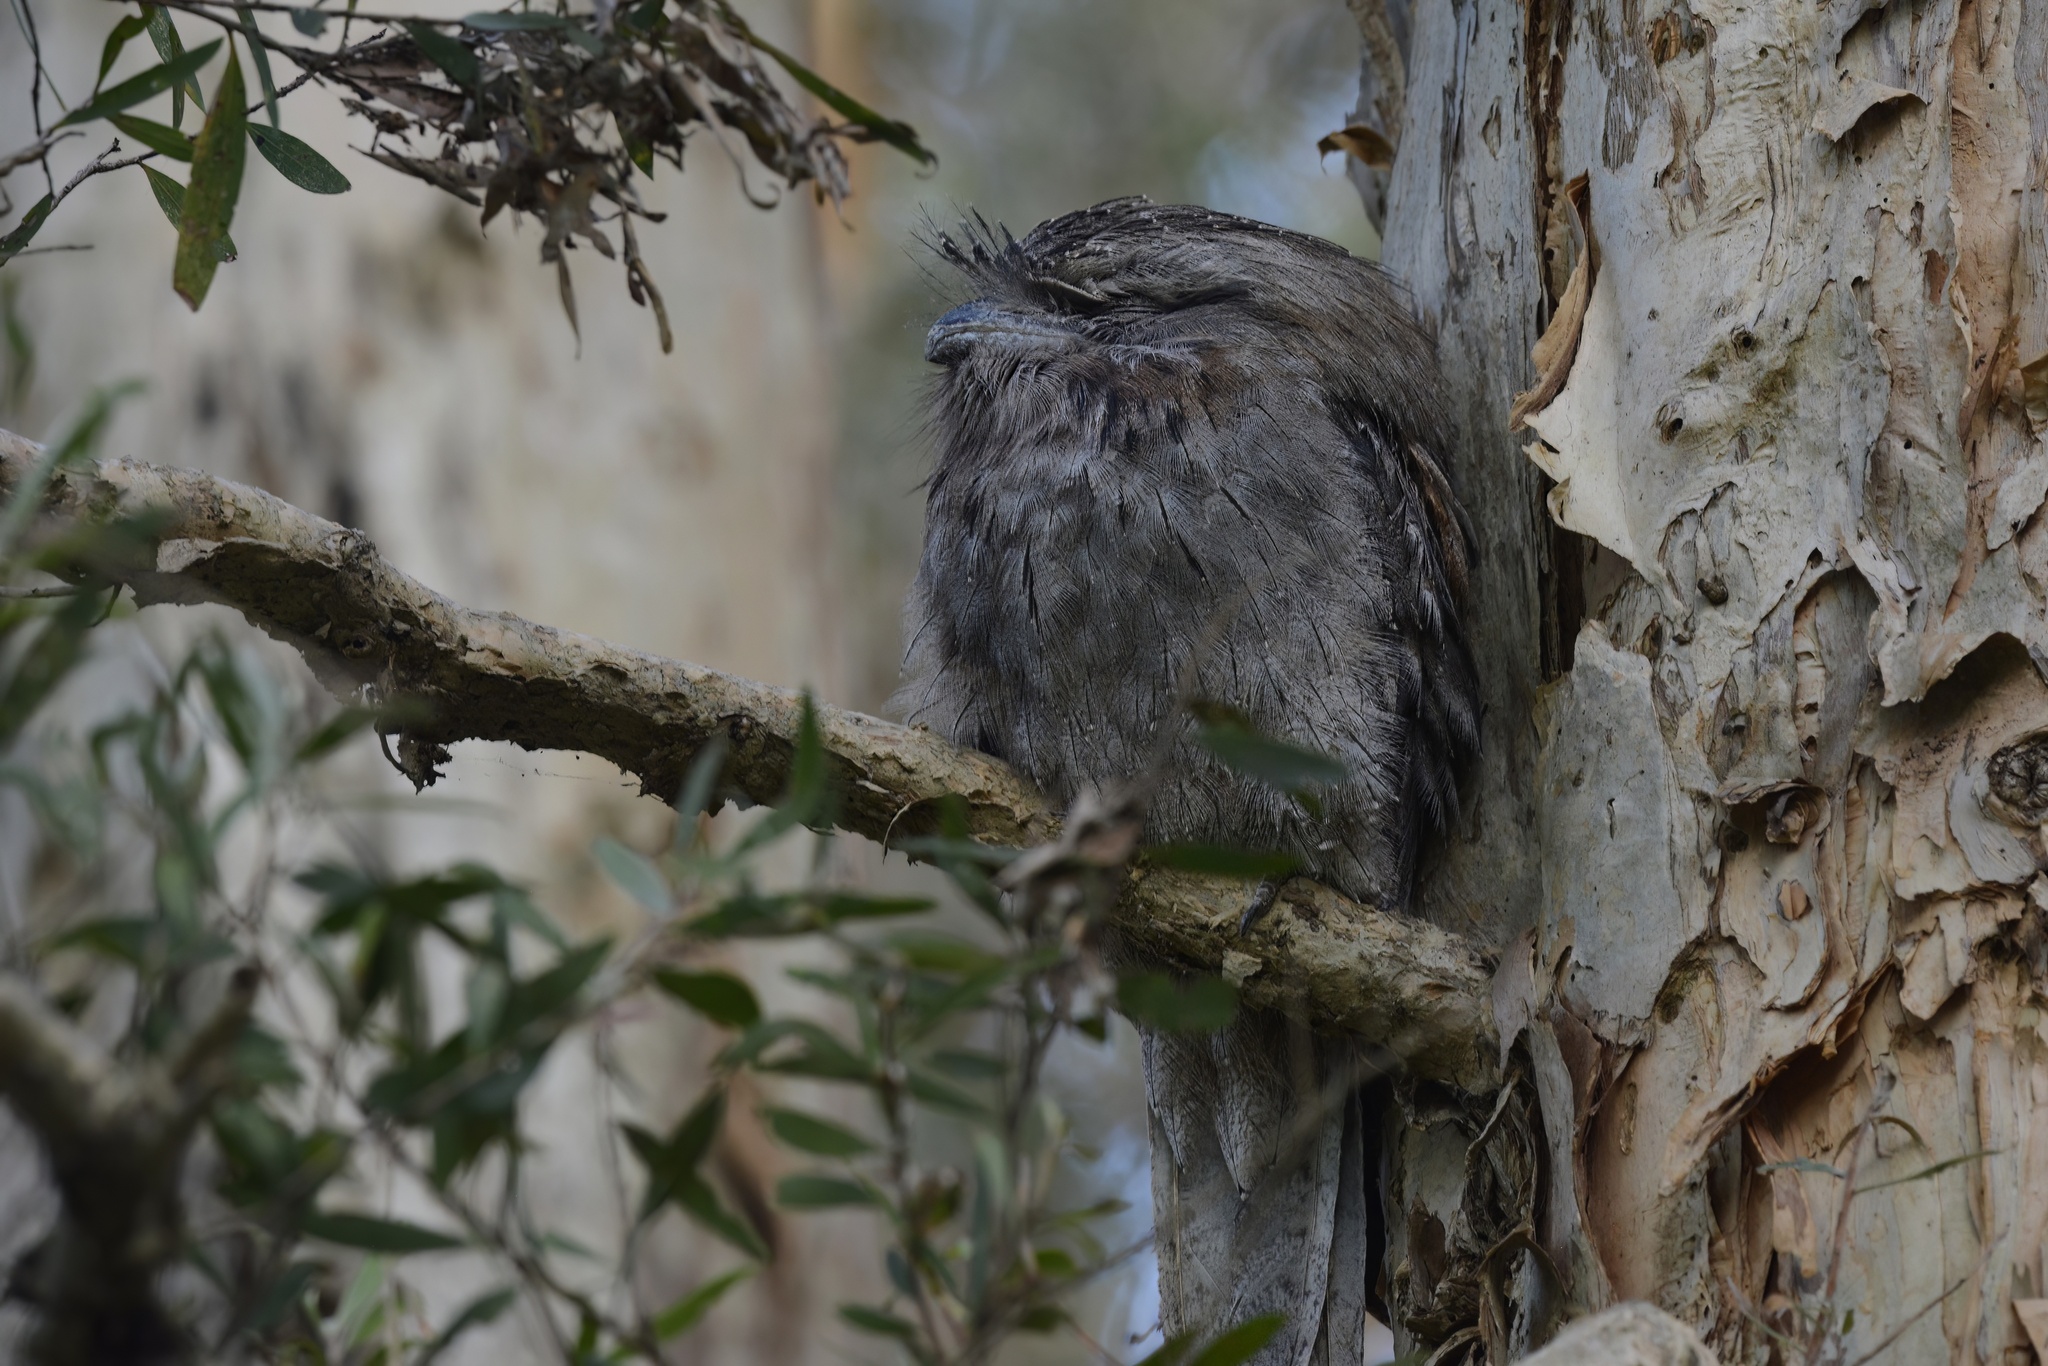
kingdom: Animalia
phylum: Chordata
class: Aves
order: Caprimulgiformes
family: Podargidae
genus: Podargus
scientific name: Podargus strigoides
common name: Tawny frogmouth
